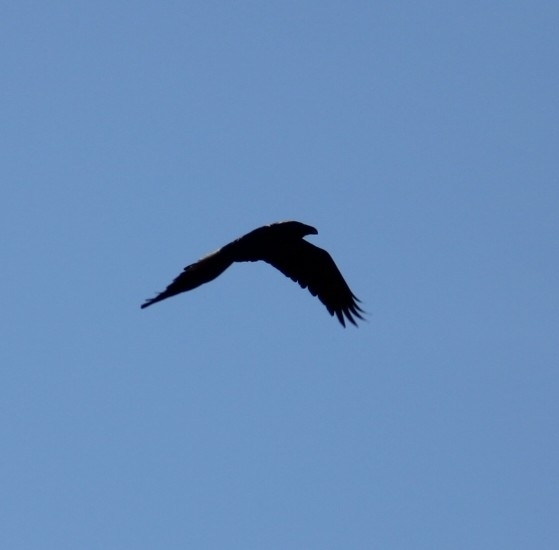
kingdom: Animalia
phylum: Chordata
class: Aves
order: Passeriformes
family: Corvidae
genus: Corvus
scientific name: Corvus corax
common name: Common raven
